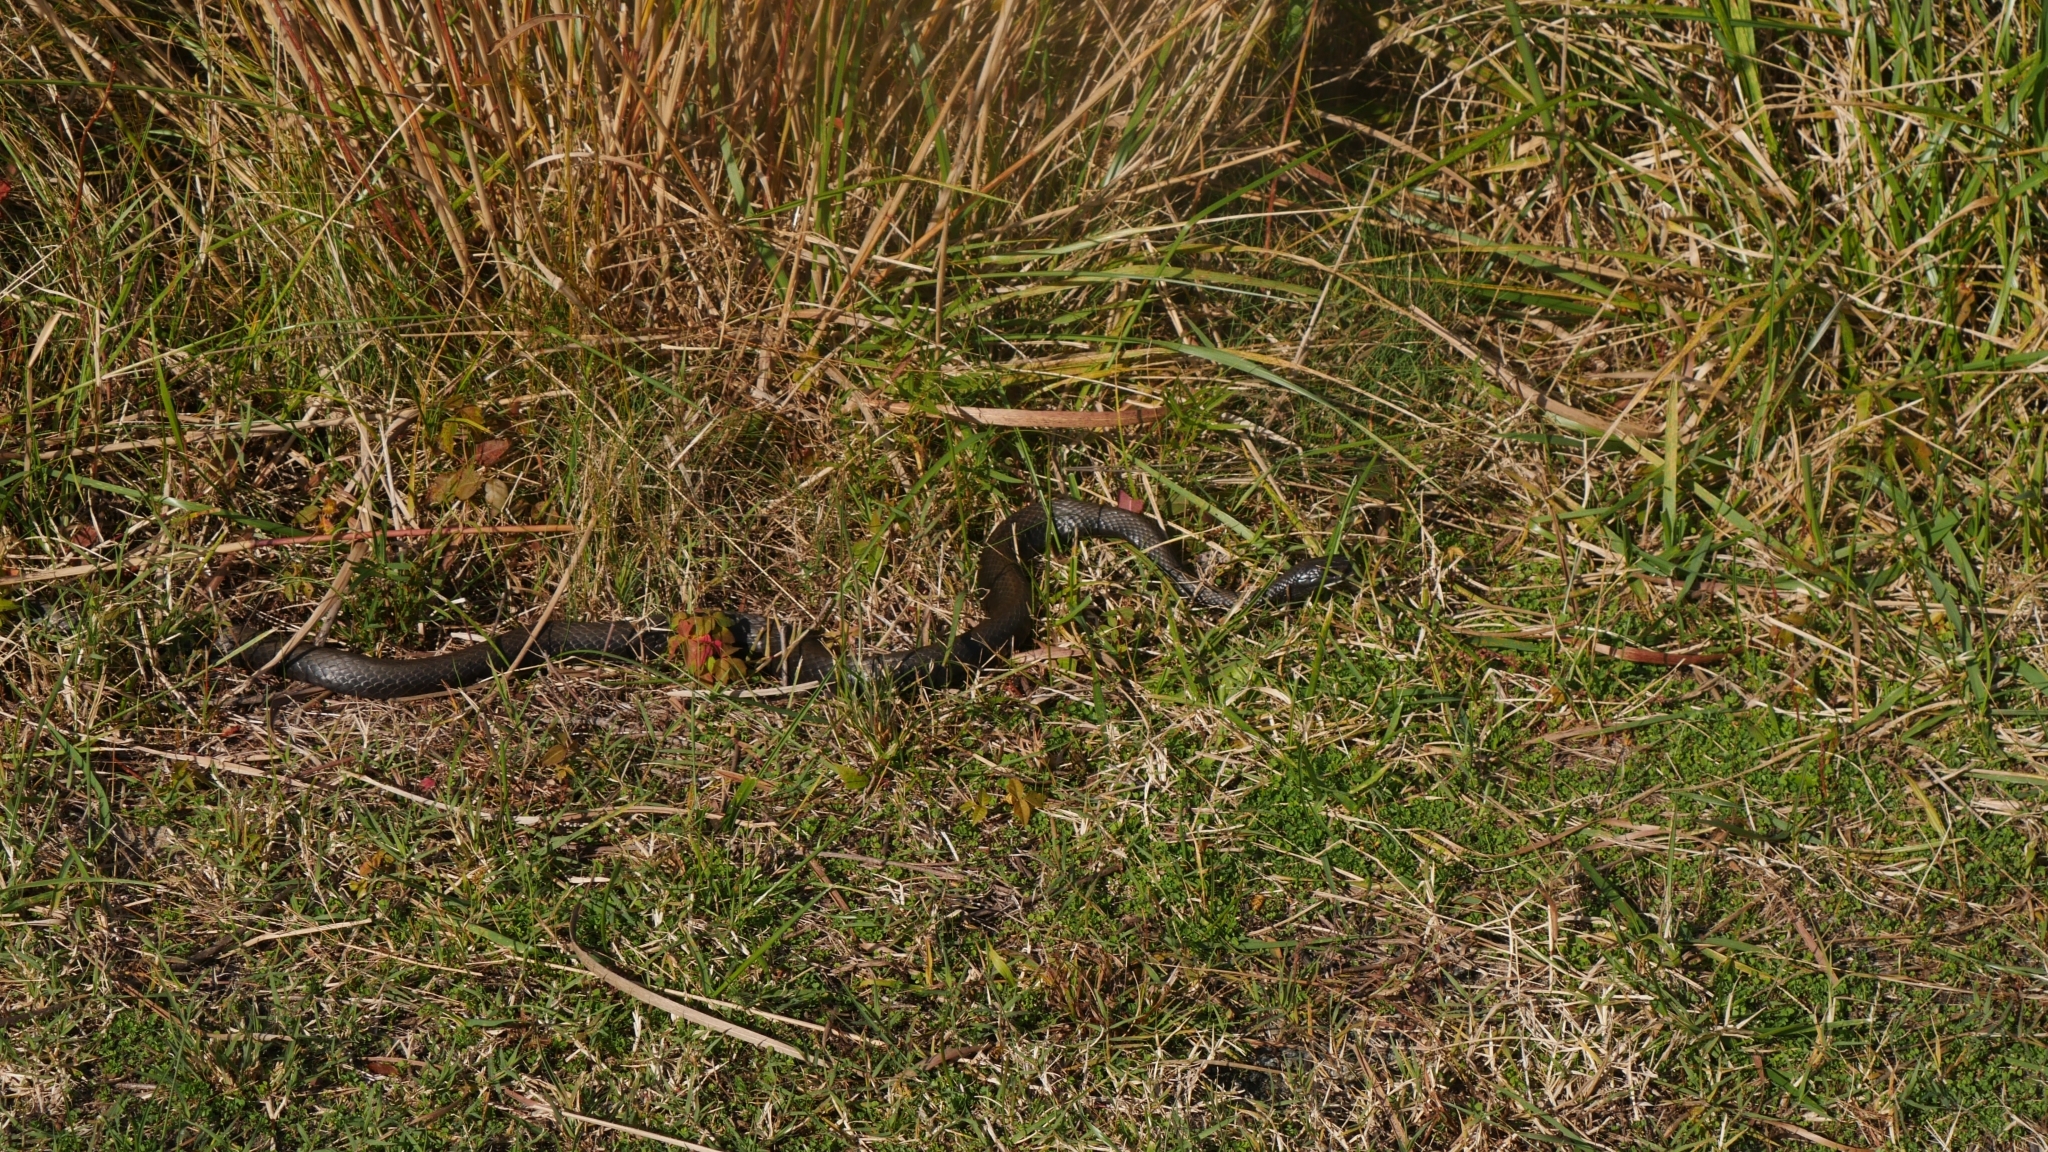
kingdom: Animalia
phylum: Chordata
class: Squamata
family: Colubridae
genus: Coluber
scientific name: Coluber constrictor
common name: Eastern racer
